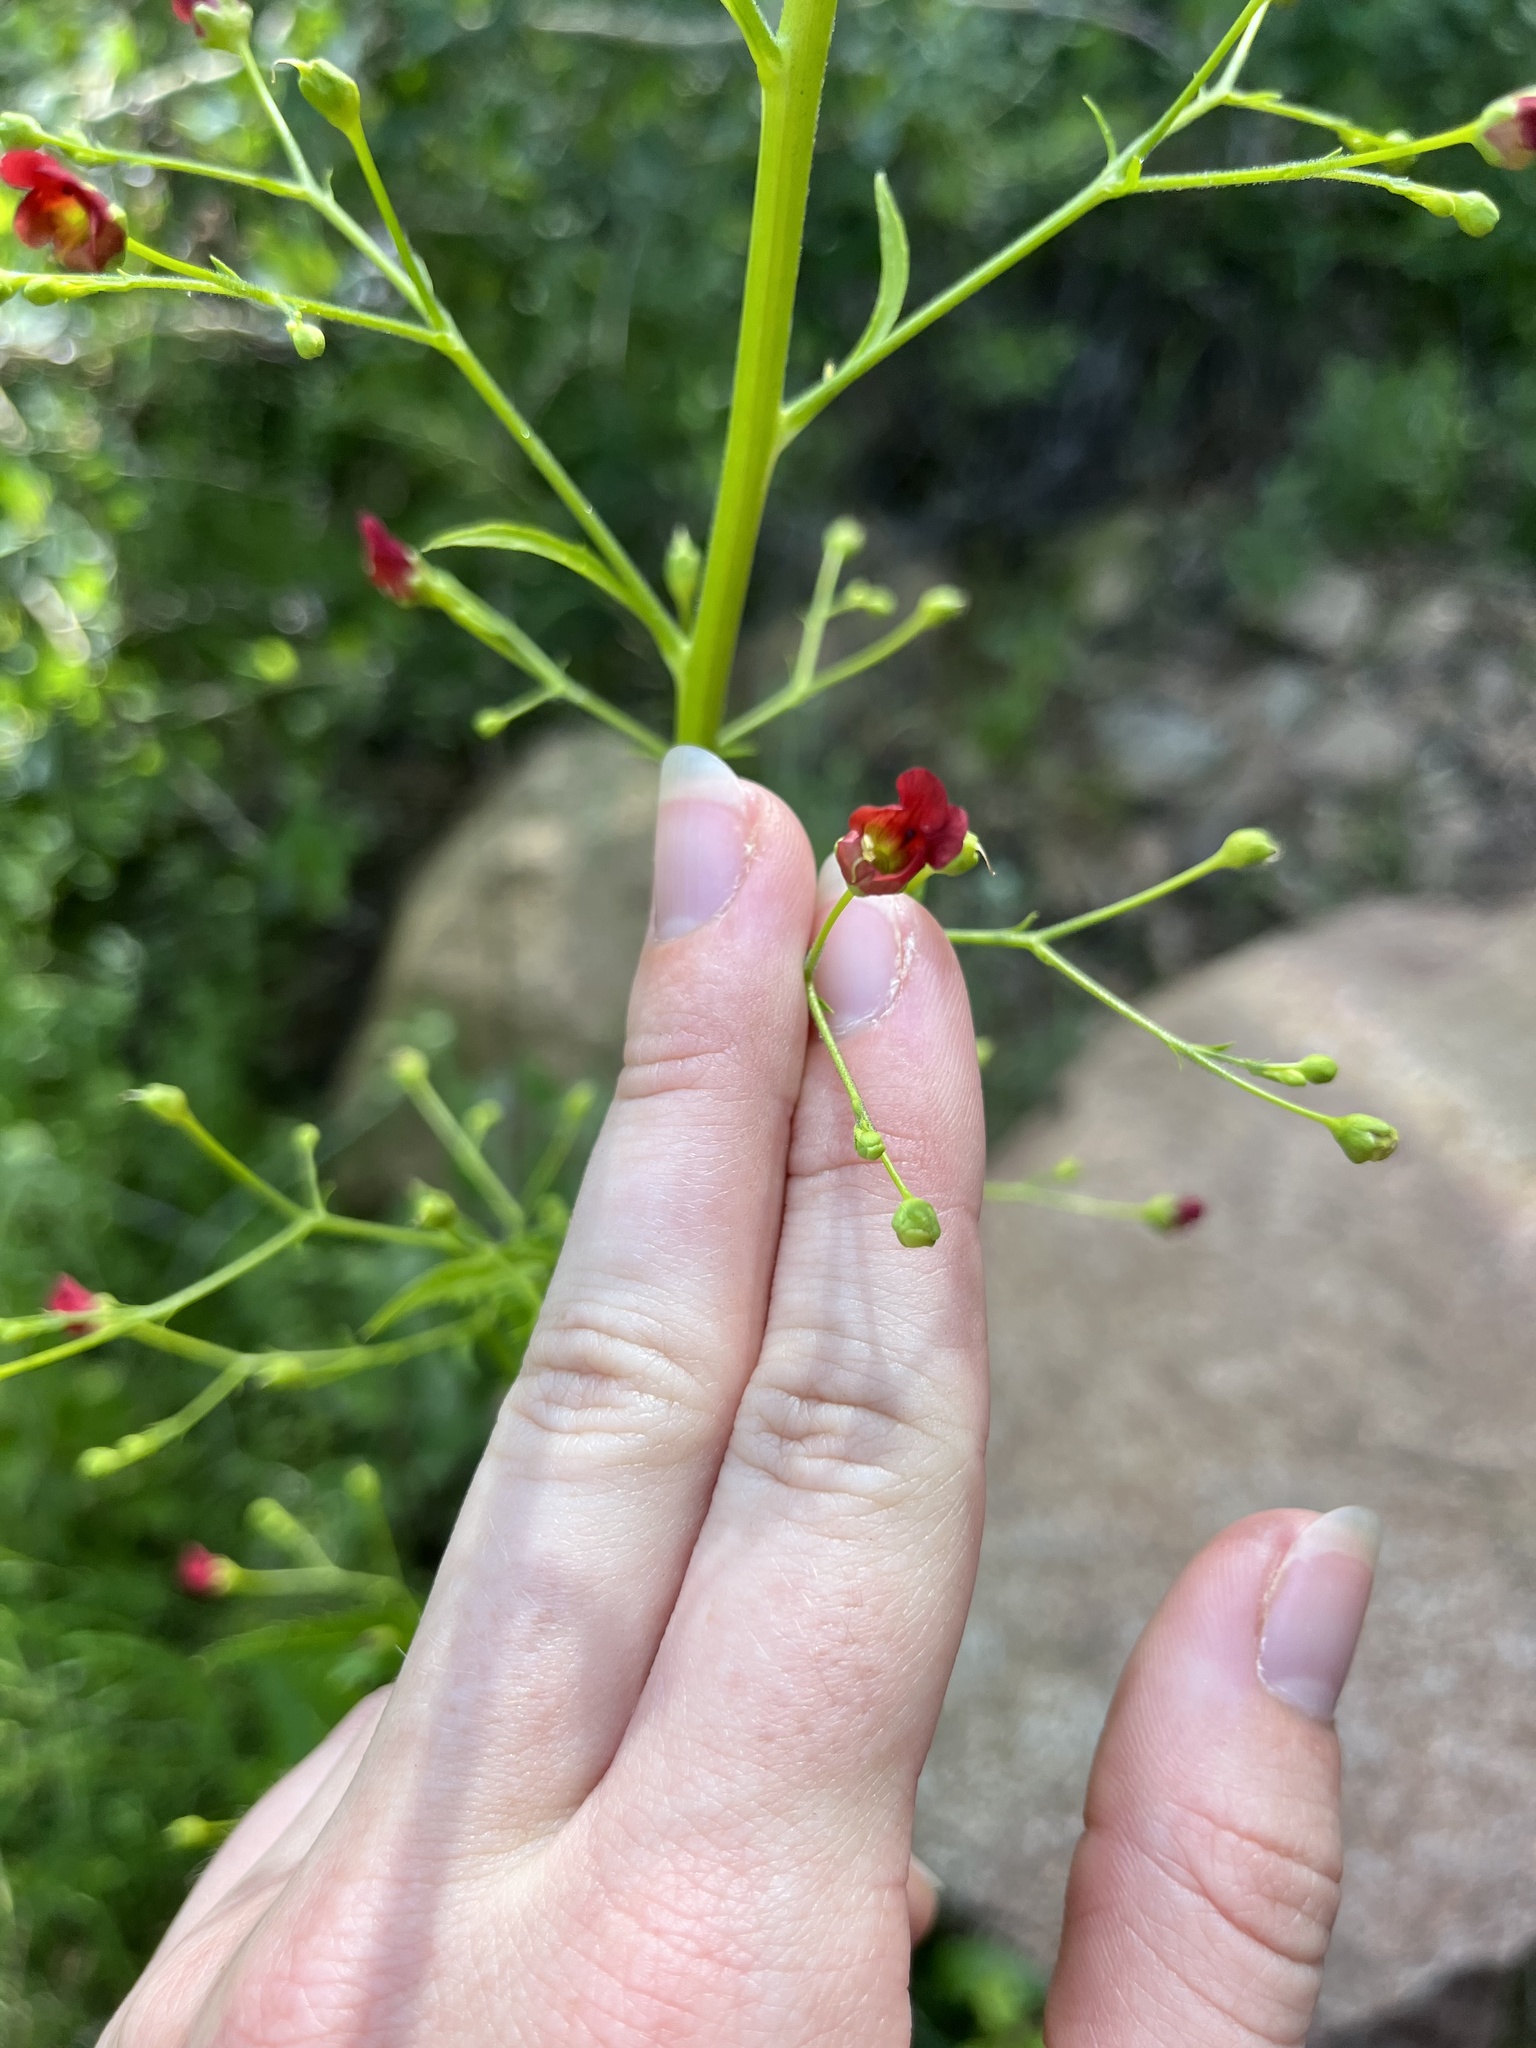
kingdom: Plantae
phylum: Tracheophyta
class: Magnoliopsida
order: Lamiales
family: Scrophulariaceae
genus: Scrophularia
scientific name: Scrophularia californica
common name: California figwort
